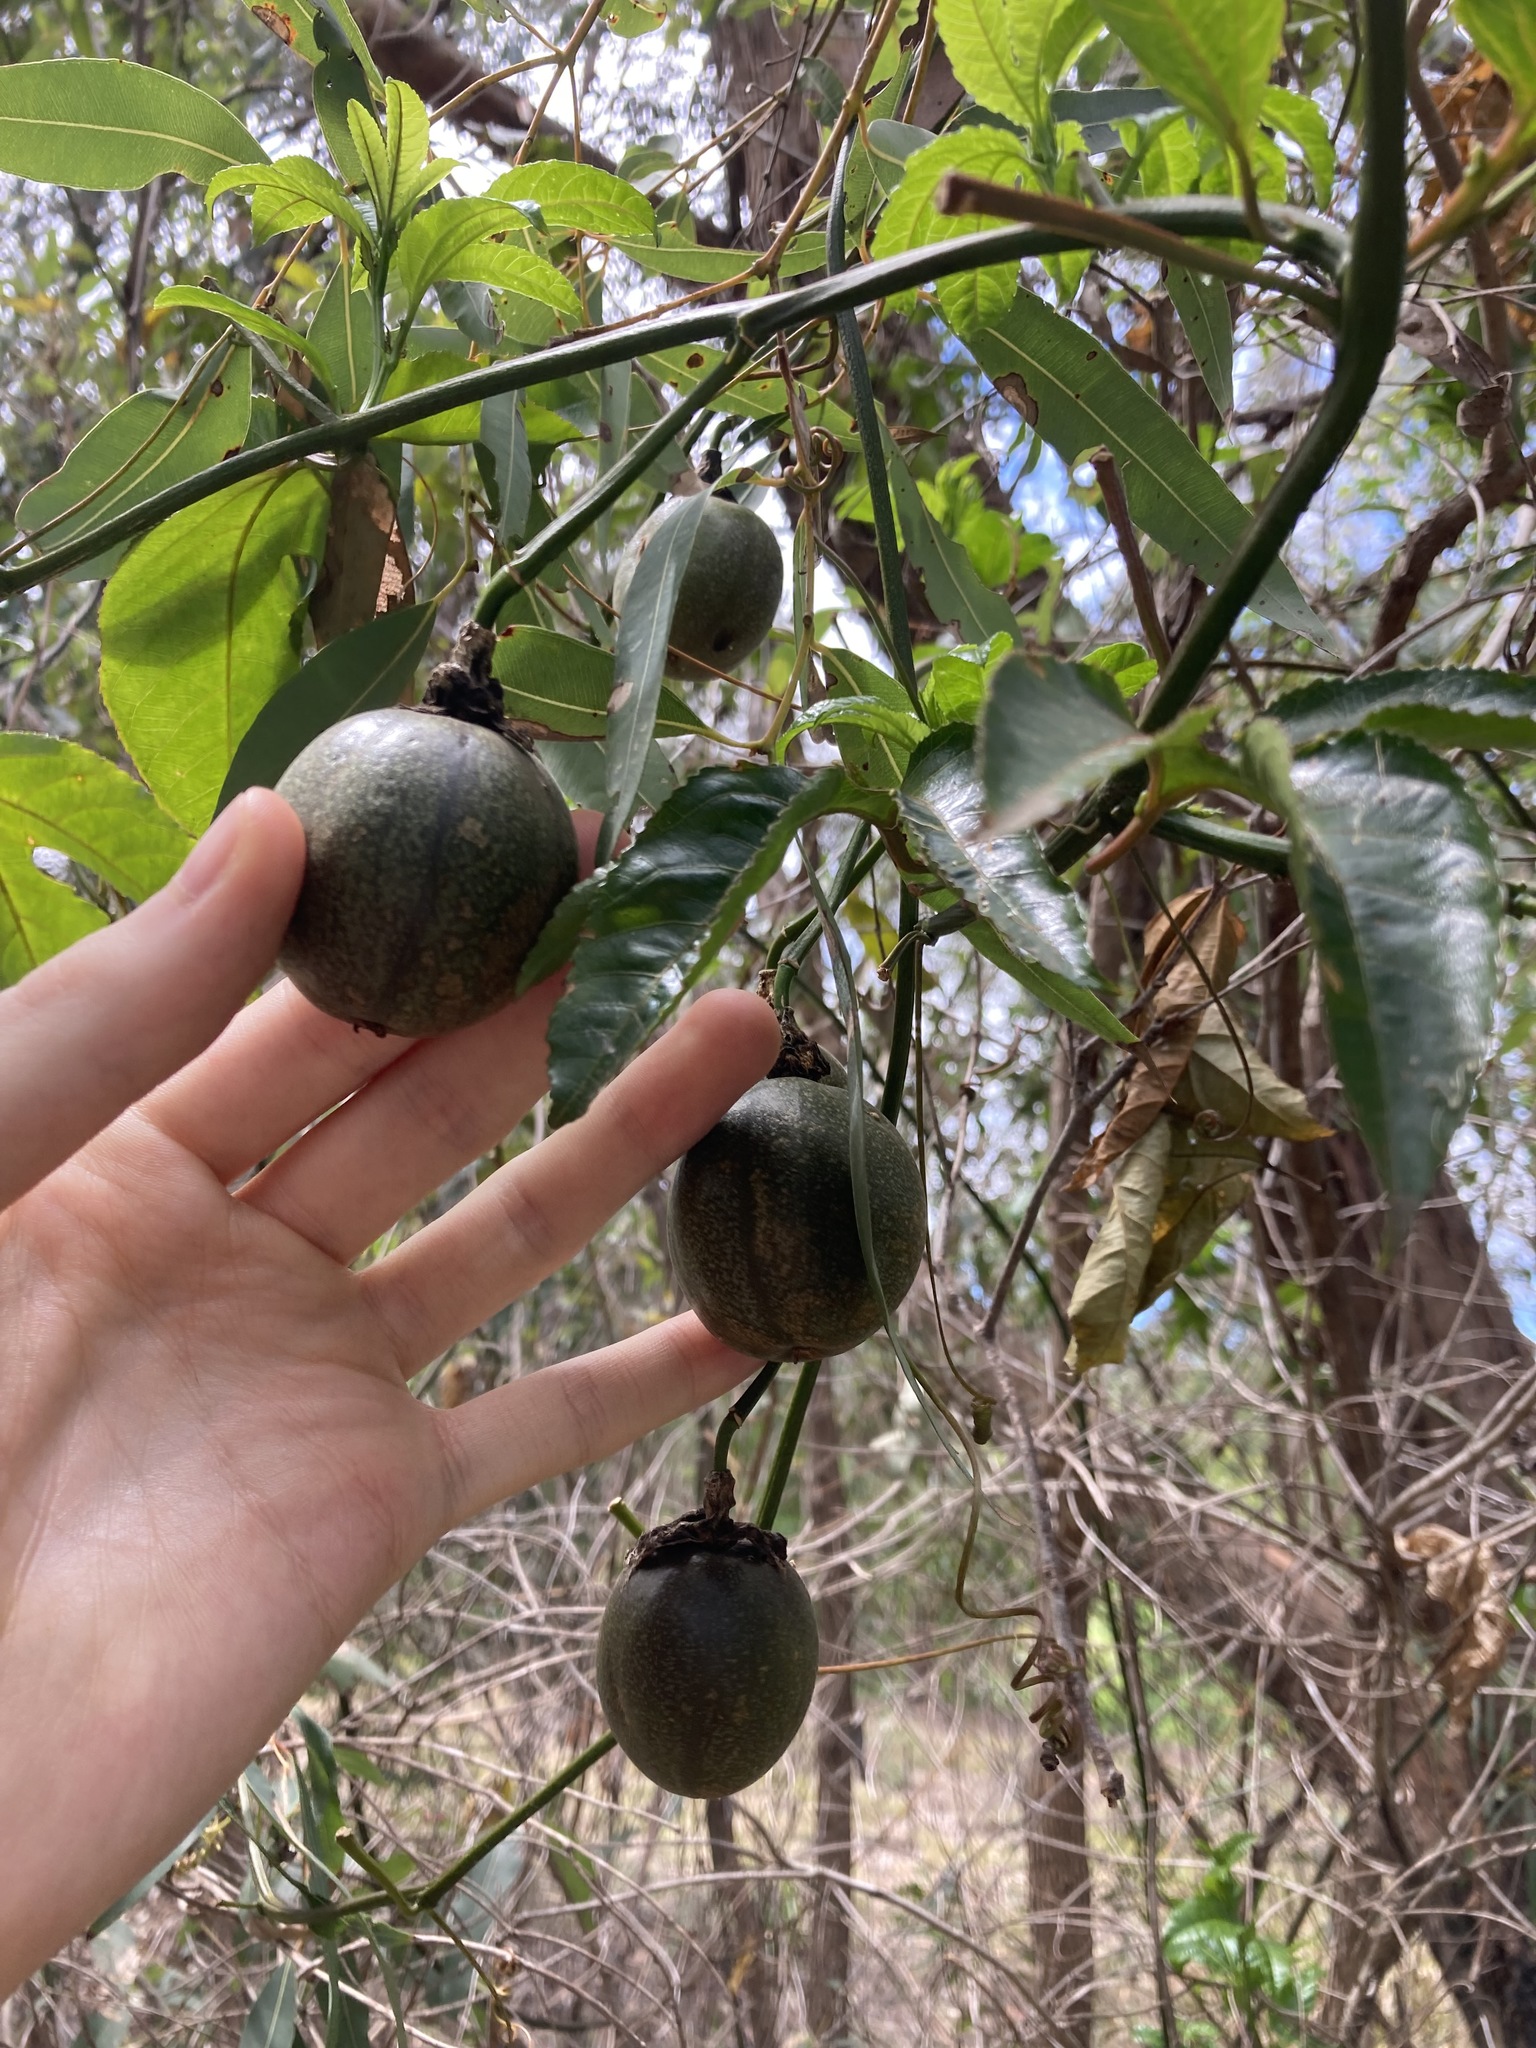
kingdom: Plantae
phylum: Tracheophyta
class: Magnoliopsida
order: Malpighiales
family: Passifloraceae
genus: Passiflora
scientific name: Passiflora edulis
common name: Purple granadilla
